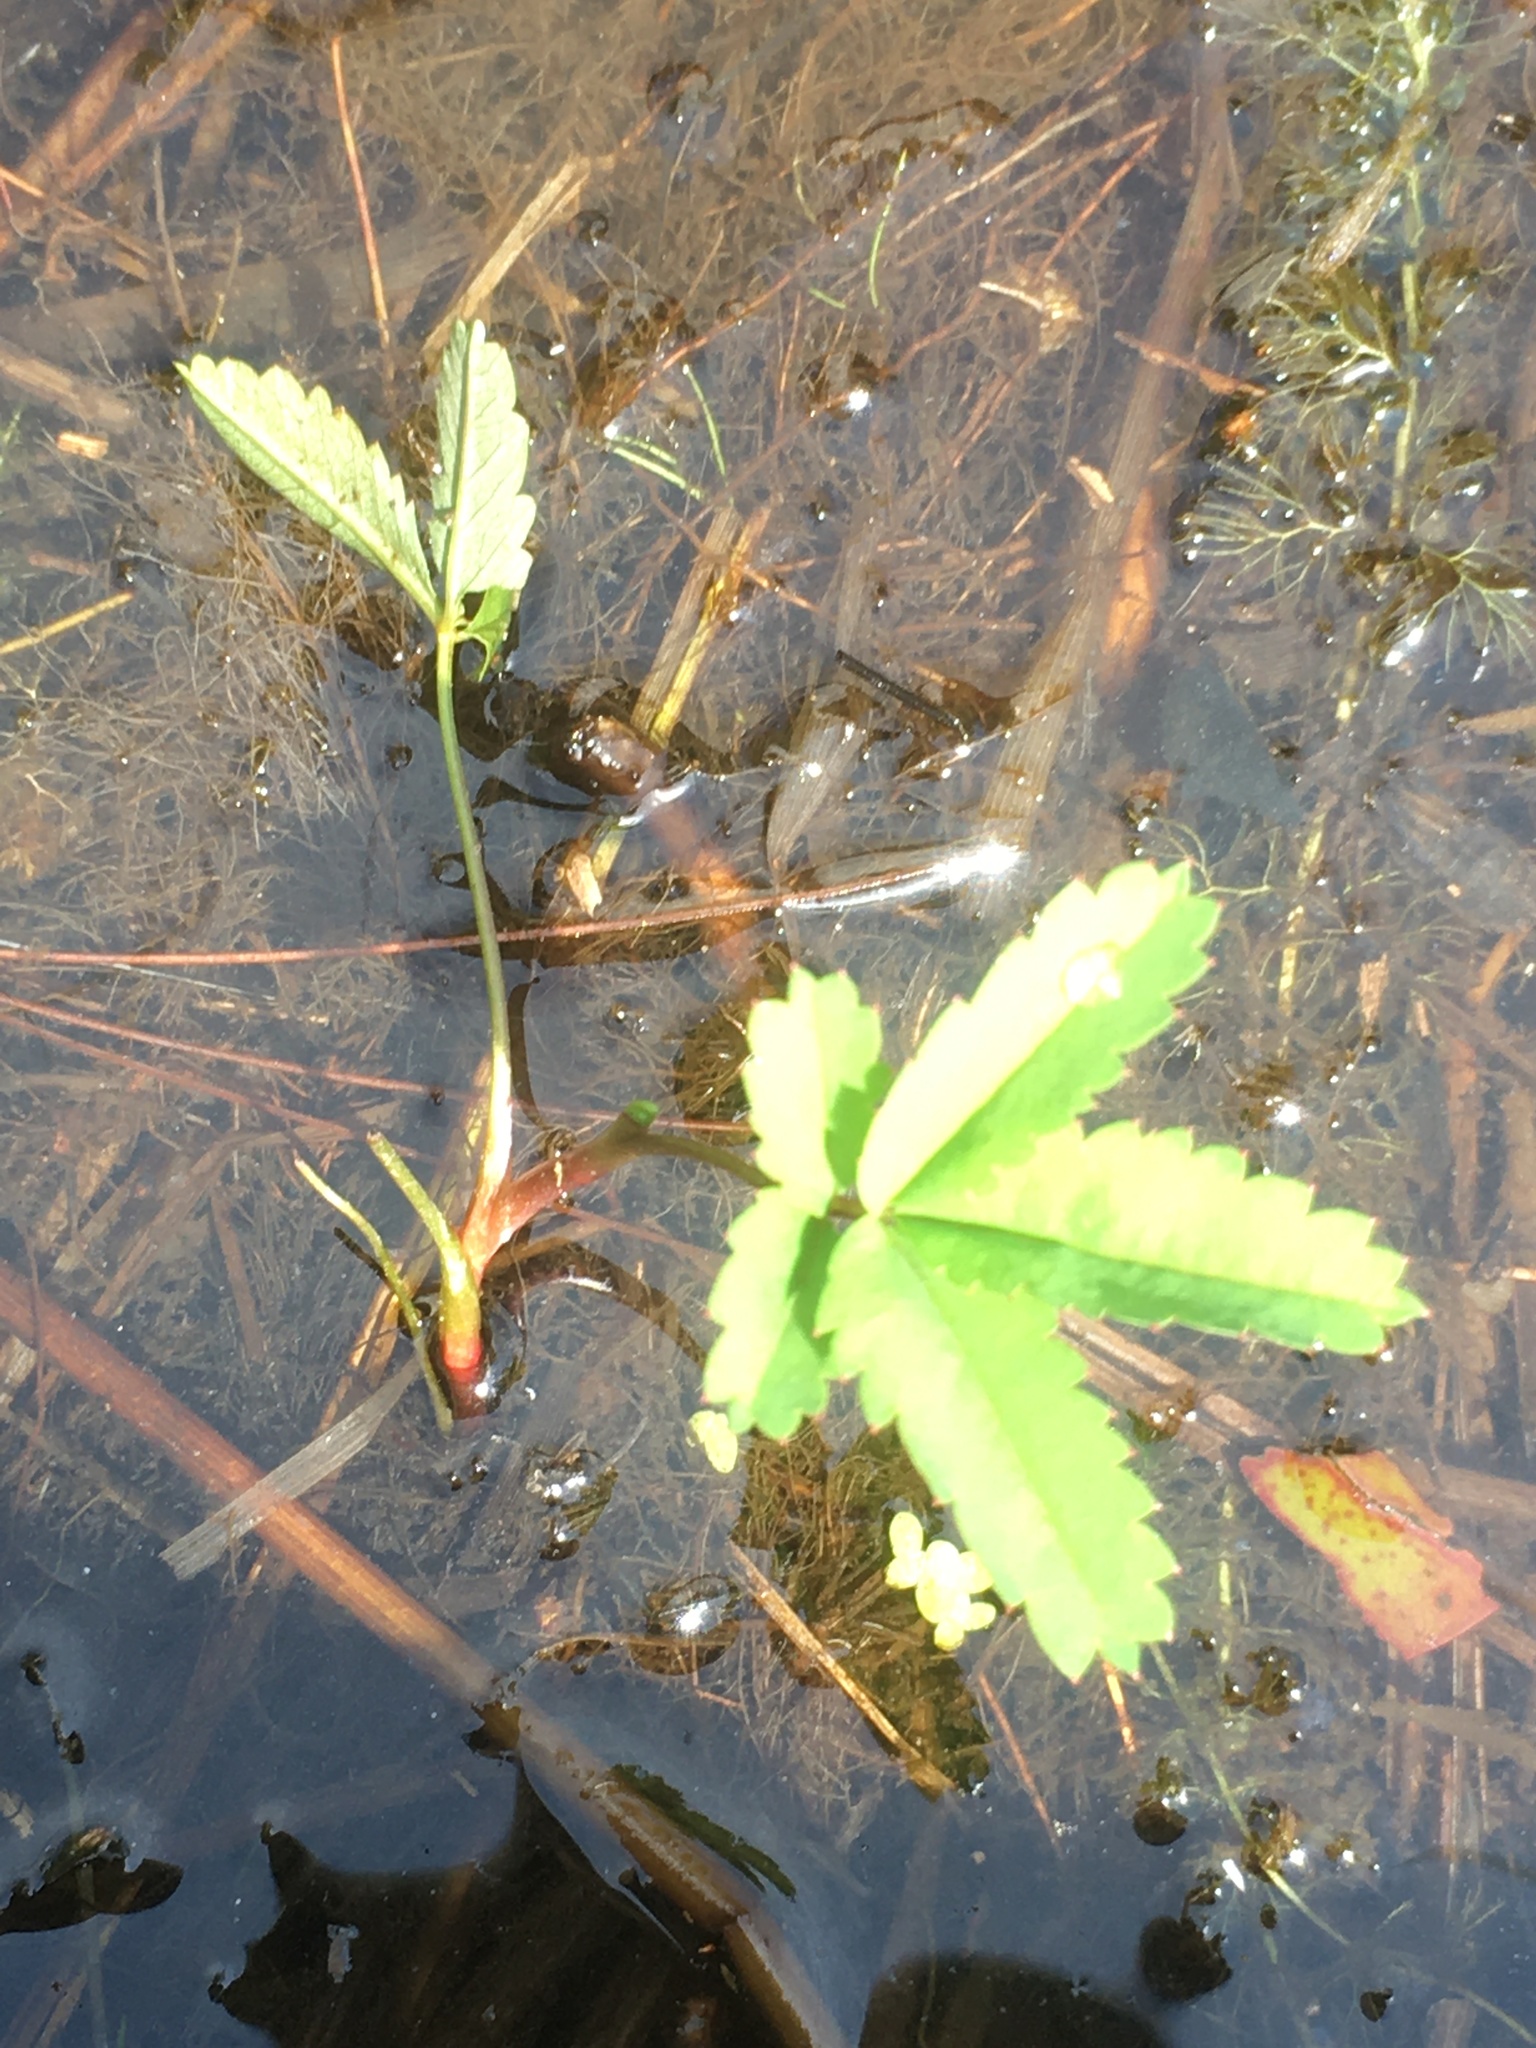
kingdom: Plantae
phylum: Tracheophyta
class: Magnoliopsida
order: Rosales
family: Rosaceae
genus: Comarum
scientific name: Comarum palustre
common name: Marsh cinquefoil
